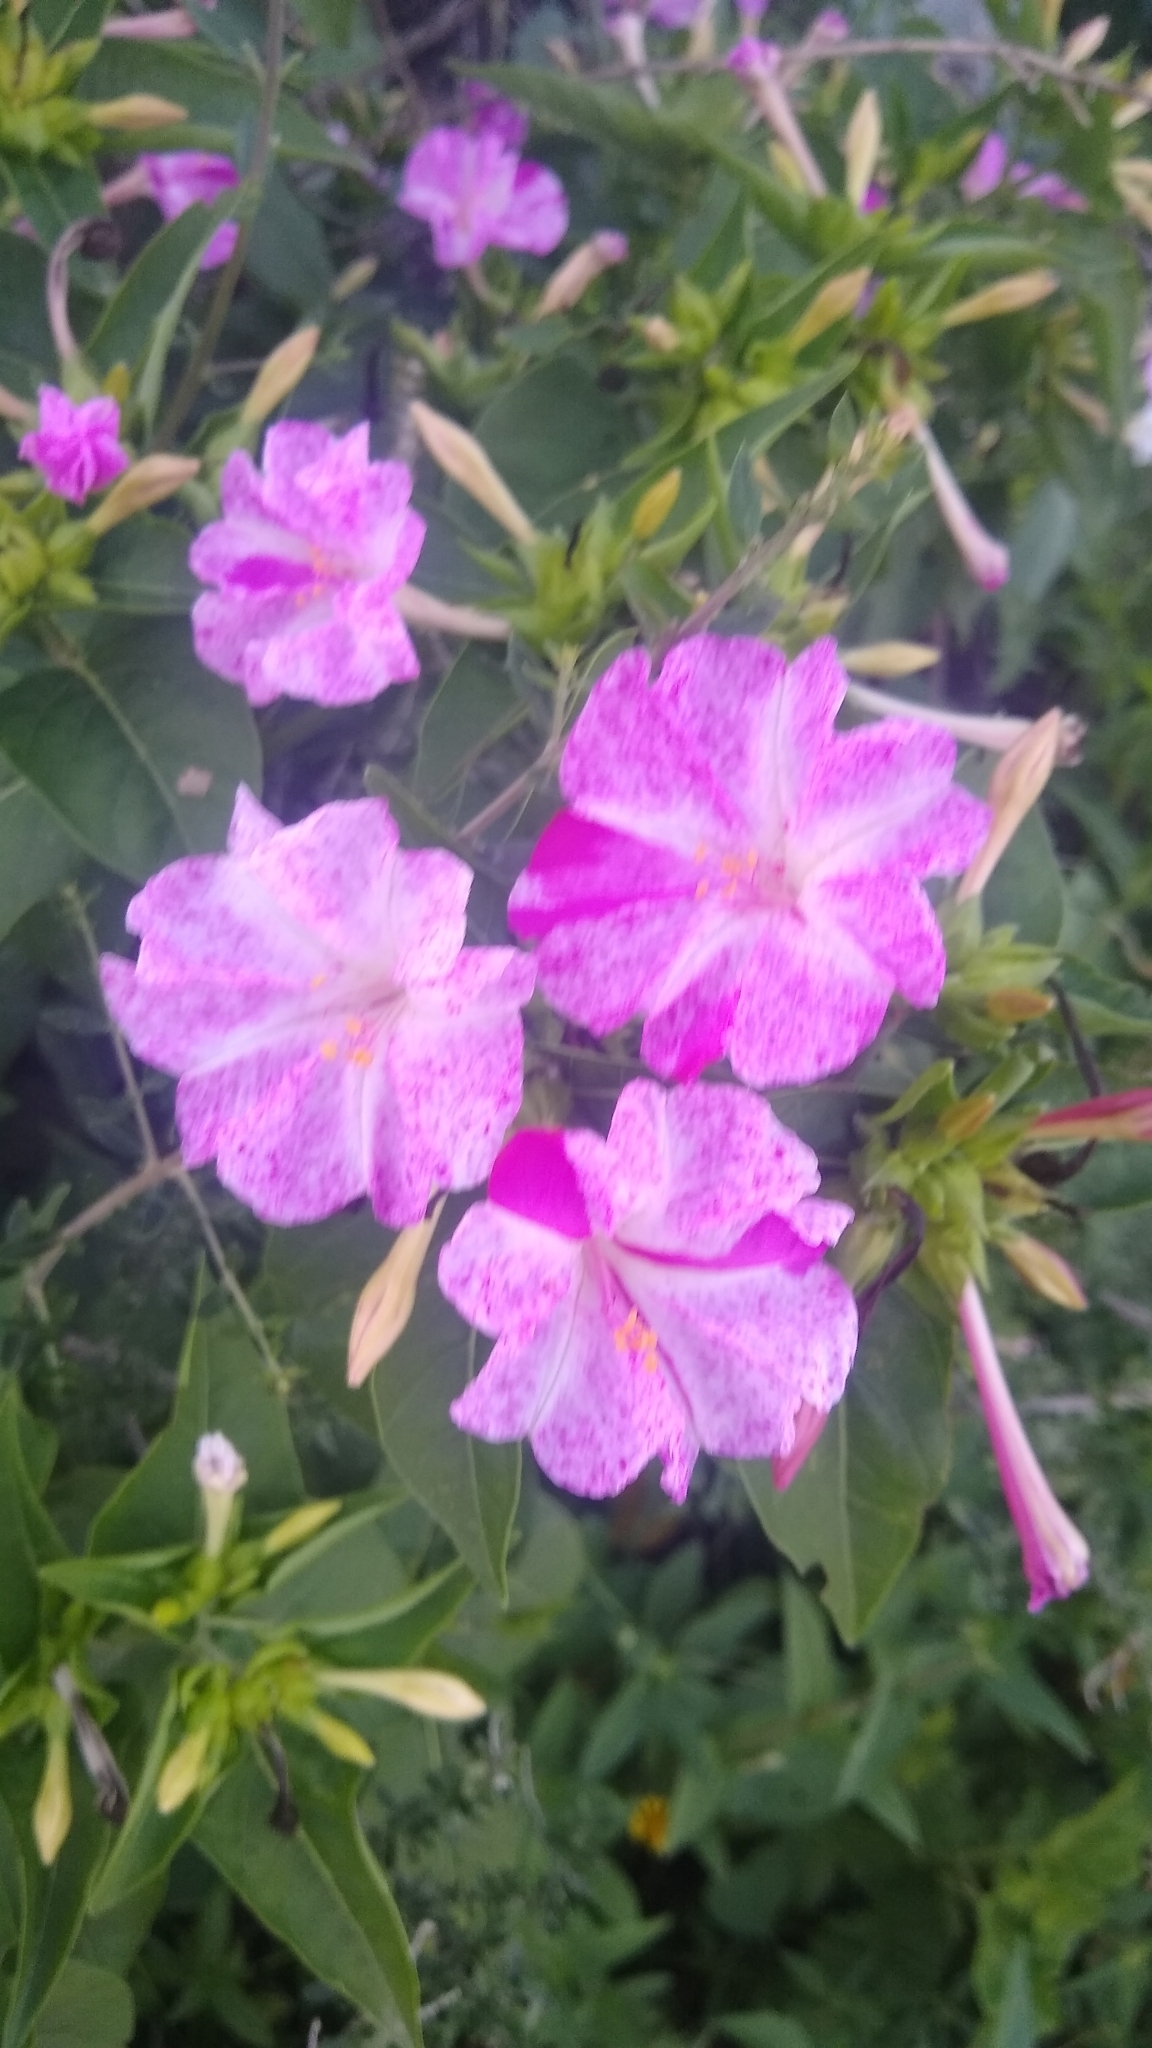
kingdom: Plantae
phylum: Tracheophyta
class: Magnoliopsida
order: Caryophyllales
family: Nyctaginaceae
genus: Mirabilis
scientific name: Mirabilis jalapa
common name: Marvel-of-peru
